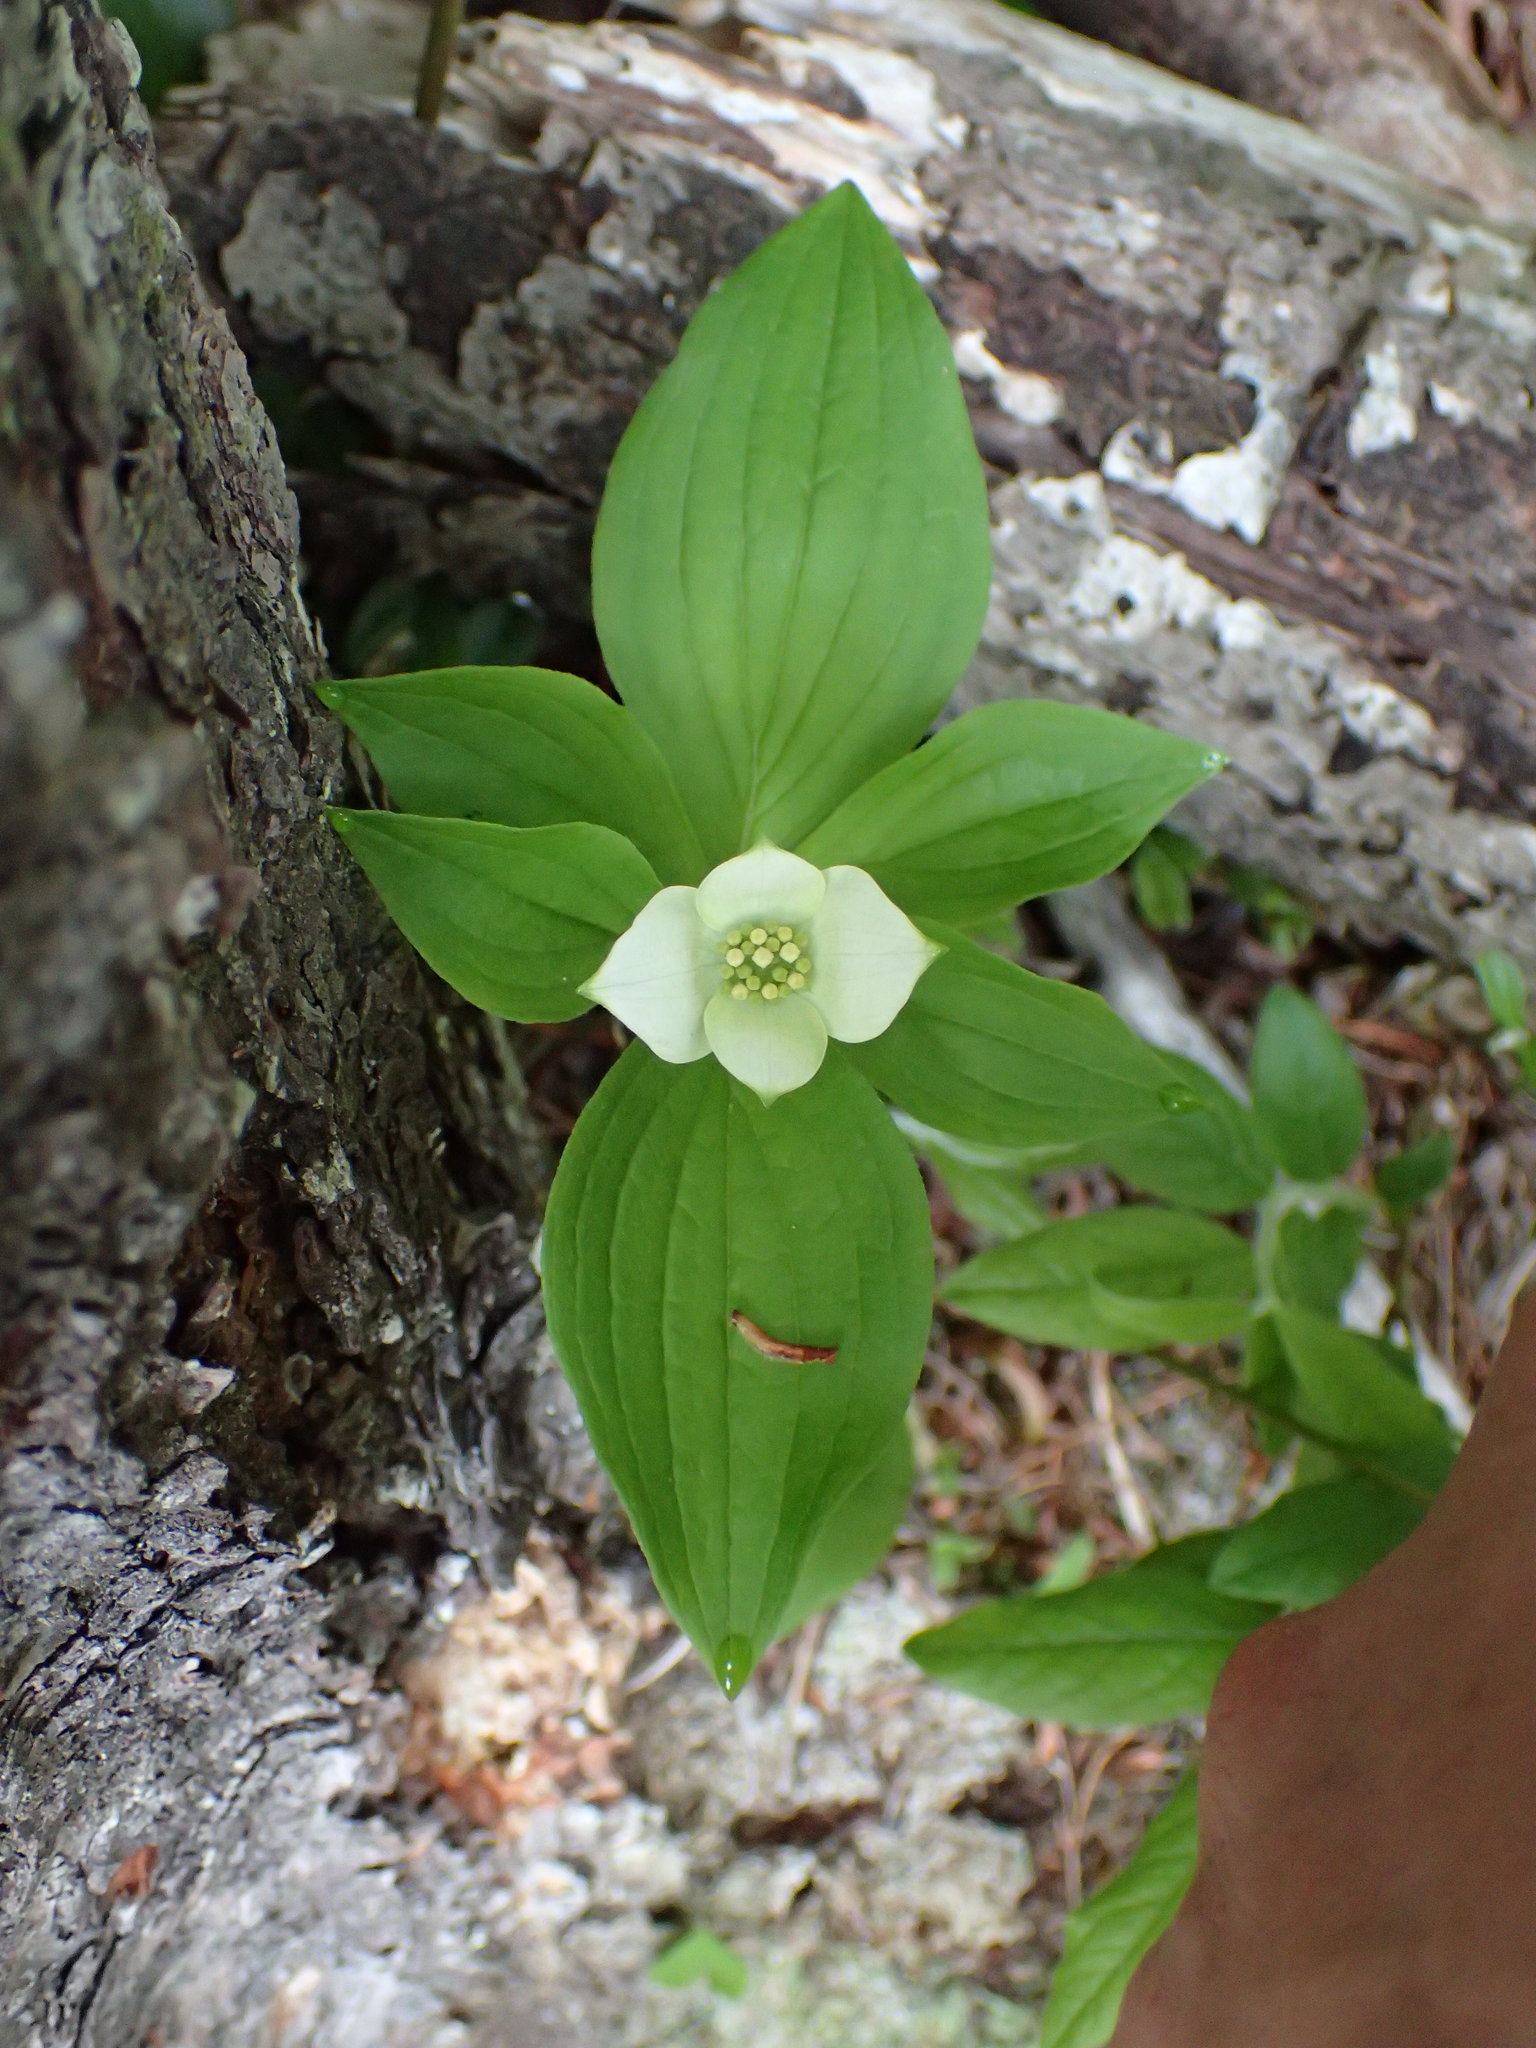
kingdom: Plantae
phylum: Tracheophyta
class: Magnoliopsida
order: Cornales
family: Cornaceae
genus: Cornus
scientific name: Cornus canadensis
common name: Creeping dogwood
